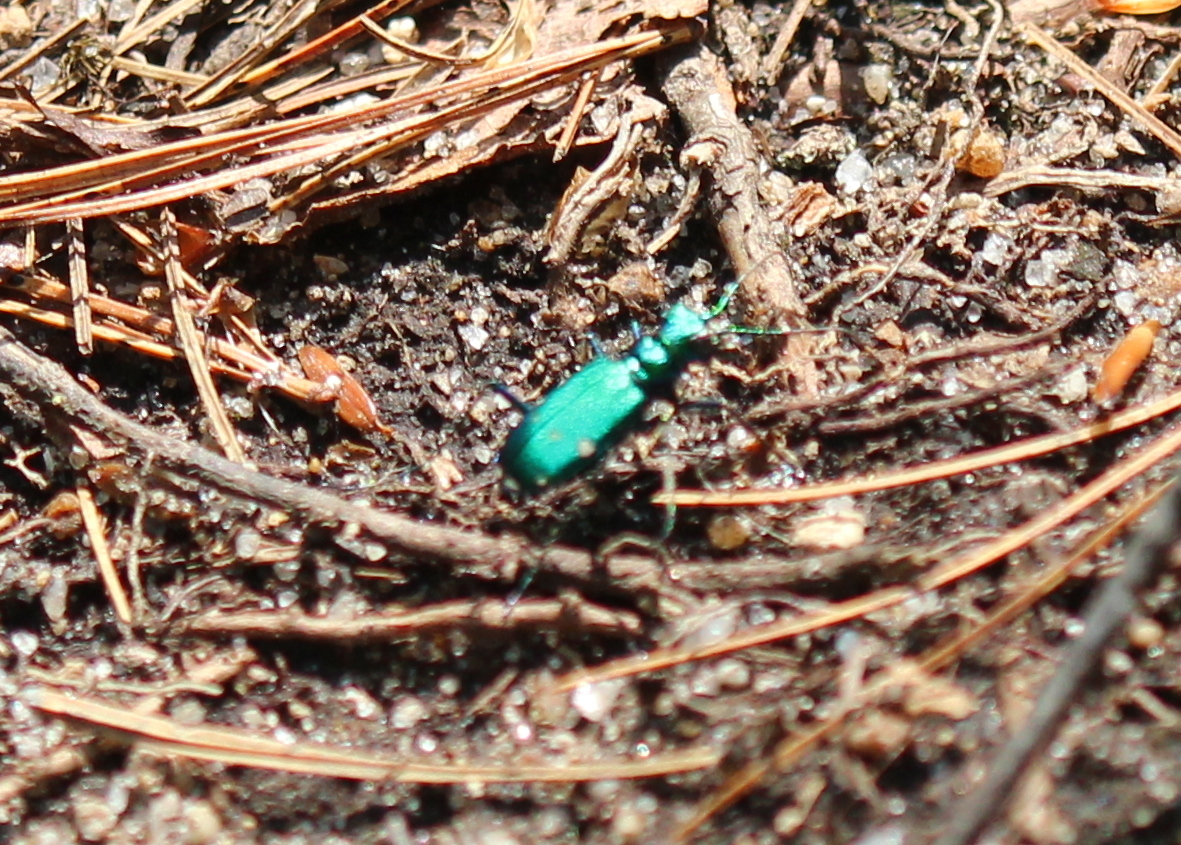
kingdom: Animalia
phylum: Arthropoda
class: Insecta
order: Coleoptera
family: Carabidae
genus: Cicindela
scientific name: Cicindela sexguttata
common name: Six-spotted tiger beetle
